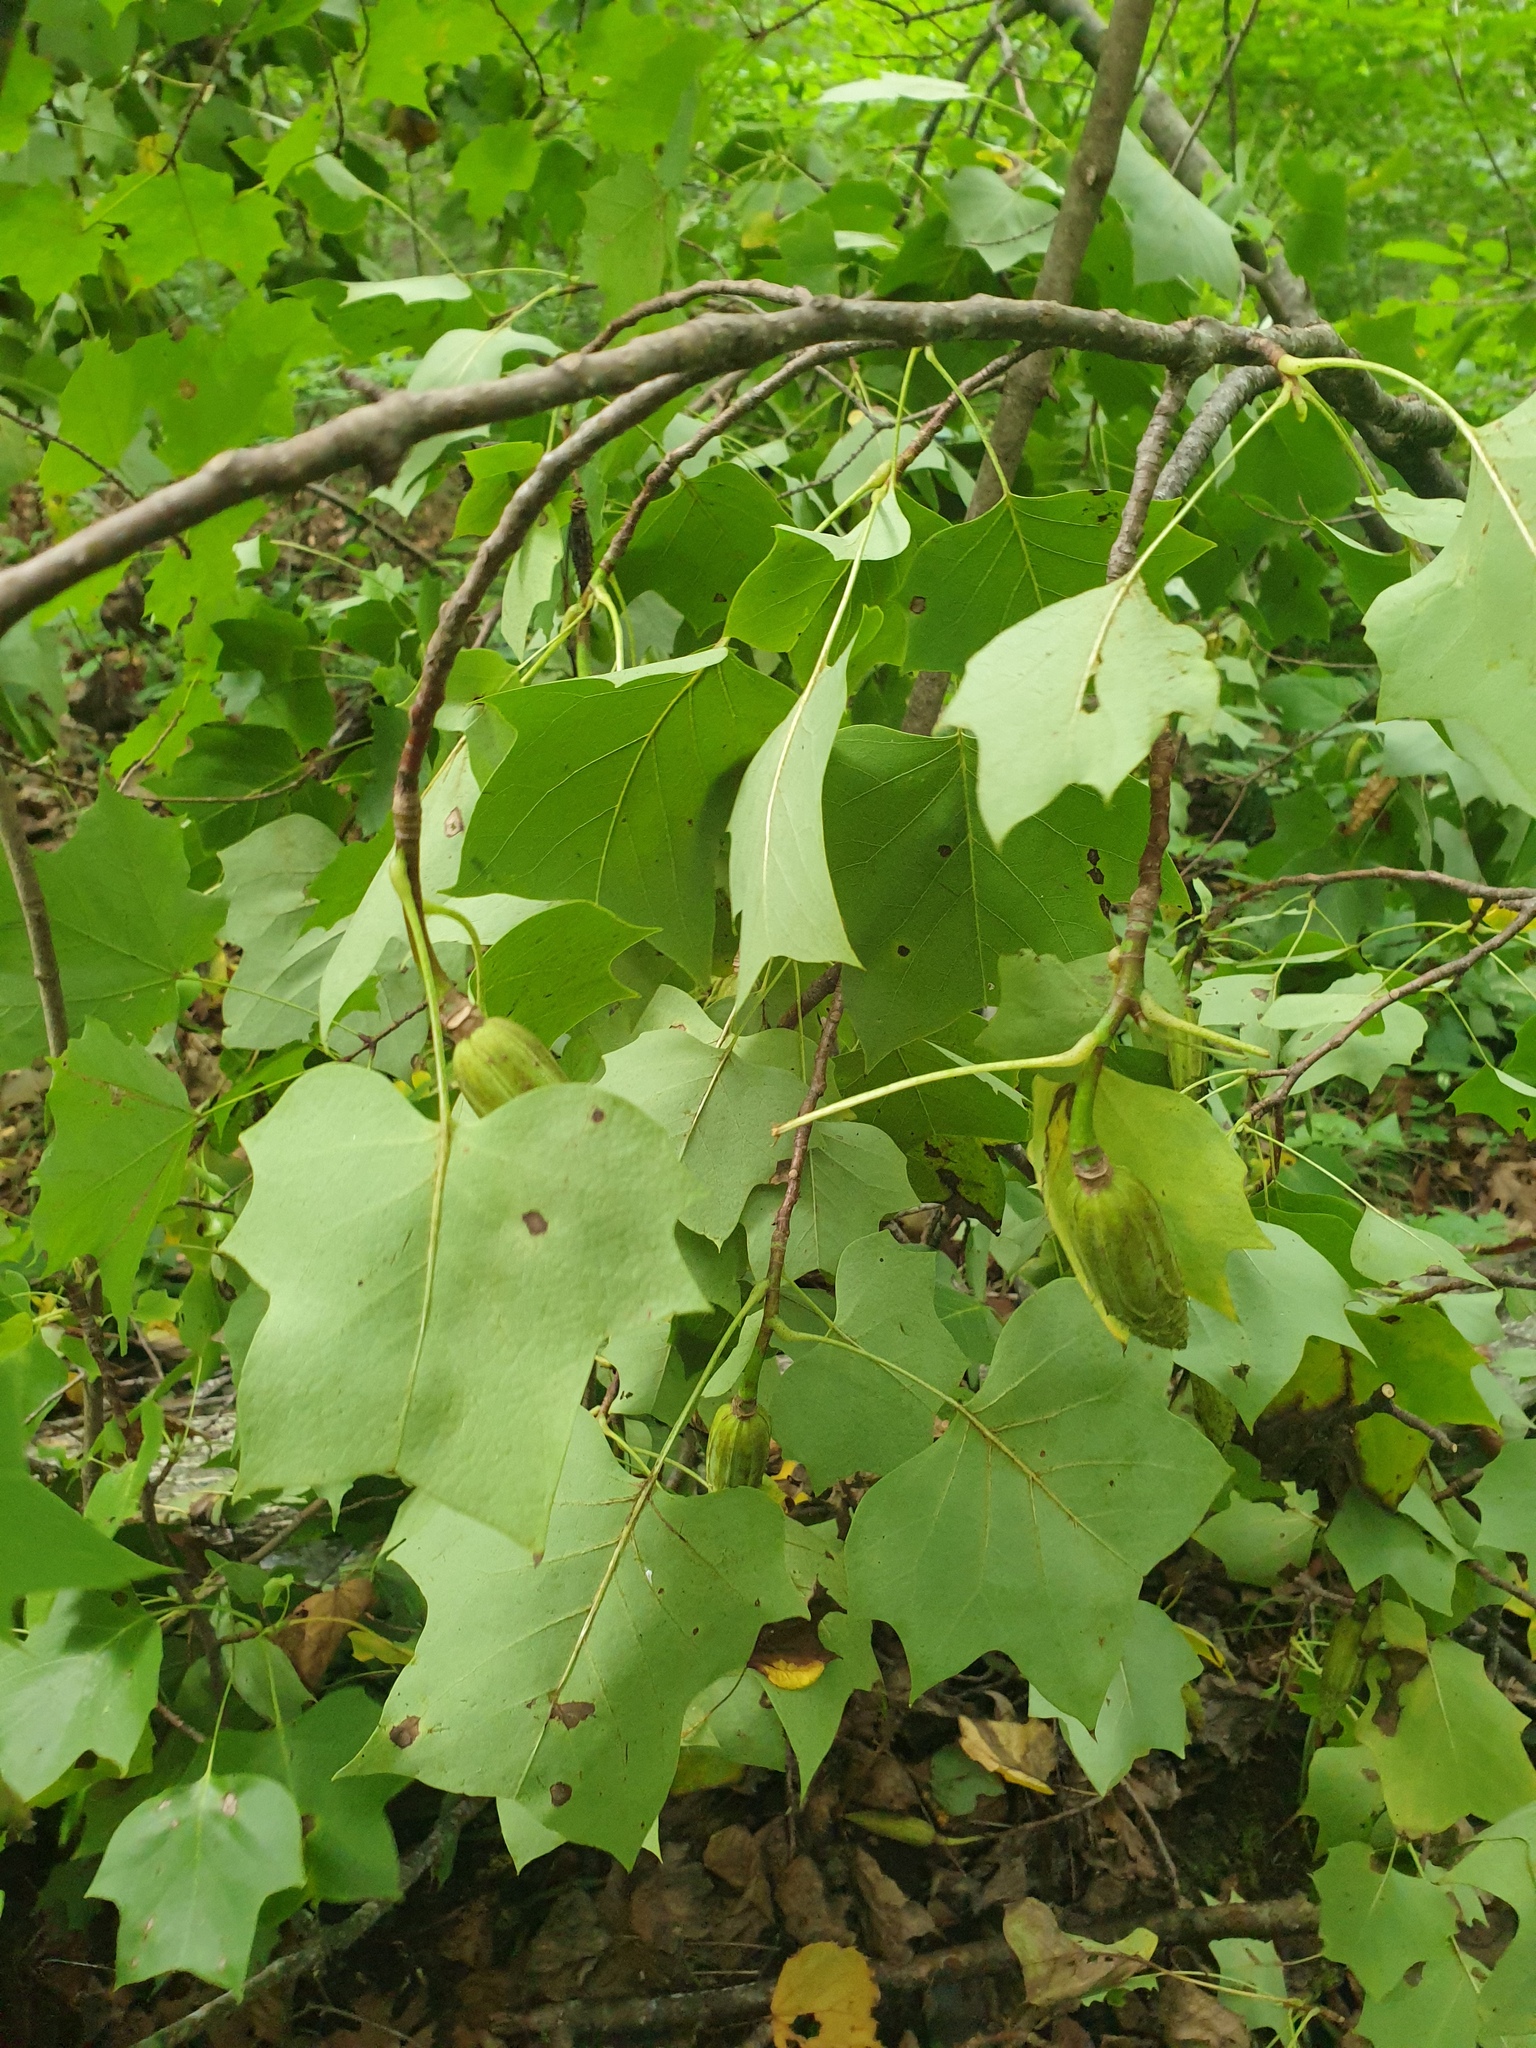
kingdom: Plantae
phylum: Tracheophyta
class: Magnoliopsida
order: Magnoliales
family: Magnoliaceae
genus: Liriodendron
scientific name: Liriodendron tulipifera
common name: Tulip tree
